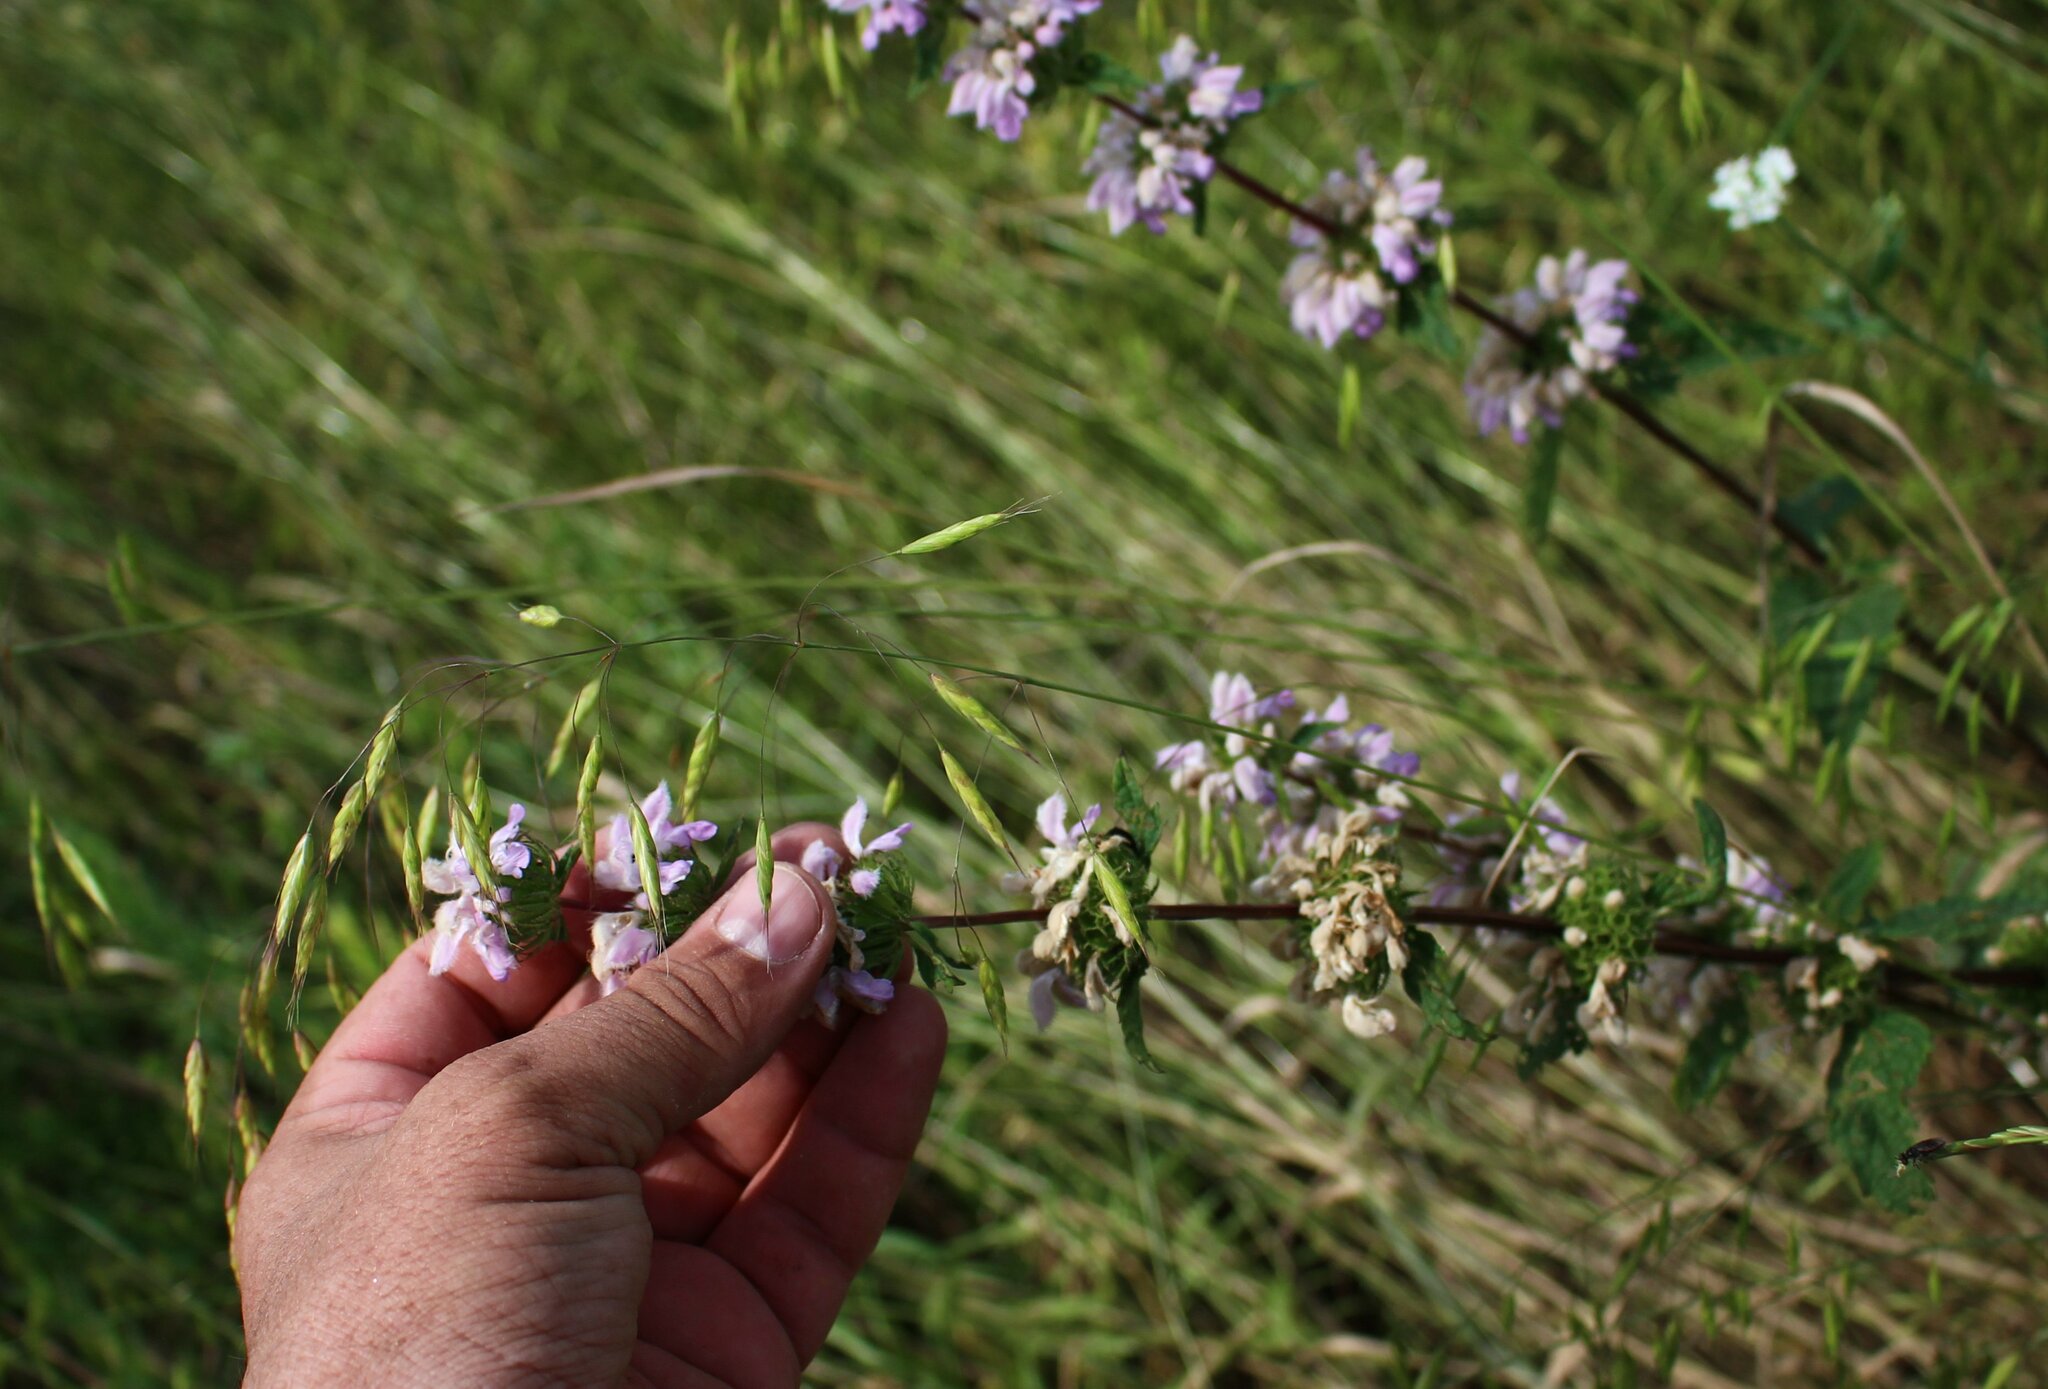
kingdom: Plantae
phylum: Tracheophyta
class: Magnoliopsida
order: Lamiales
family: Lamiaceae
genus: Phlomoides
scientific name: Phlomoides tuberosa
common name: Tuberous jerusalem sage
